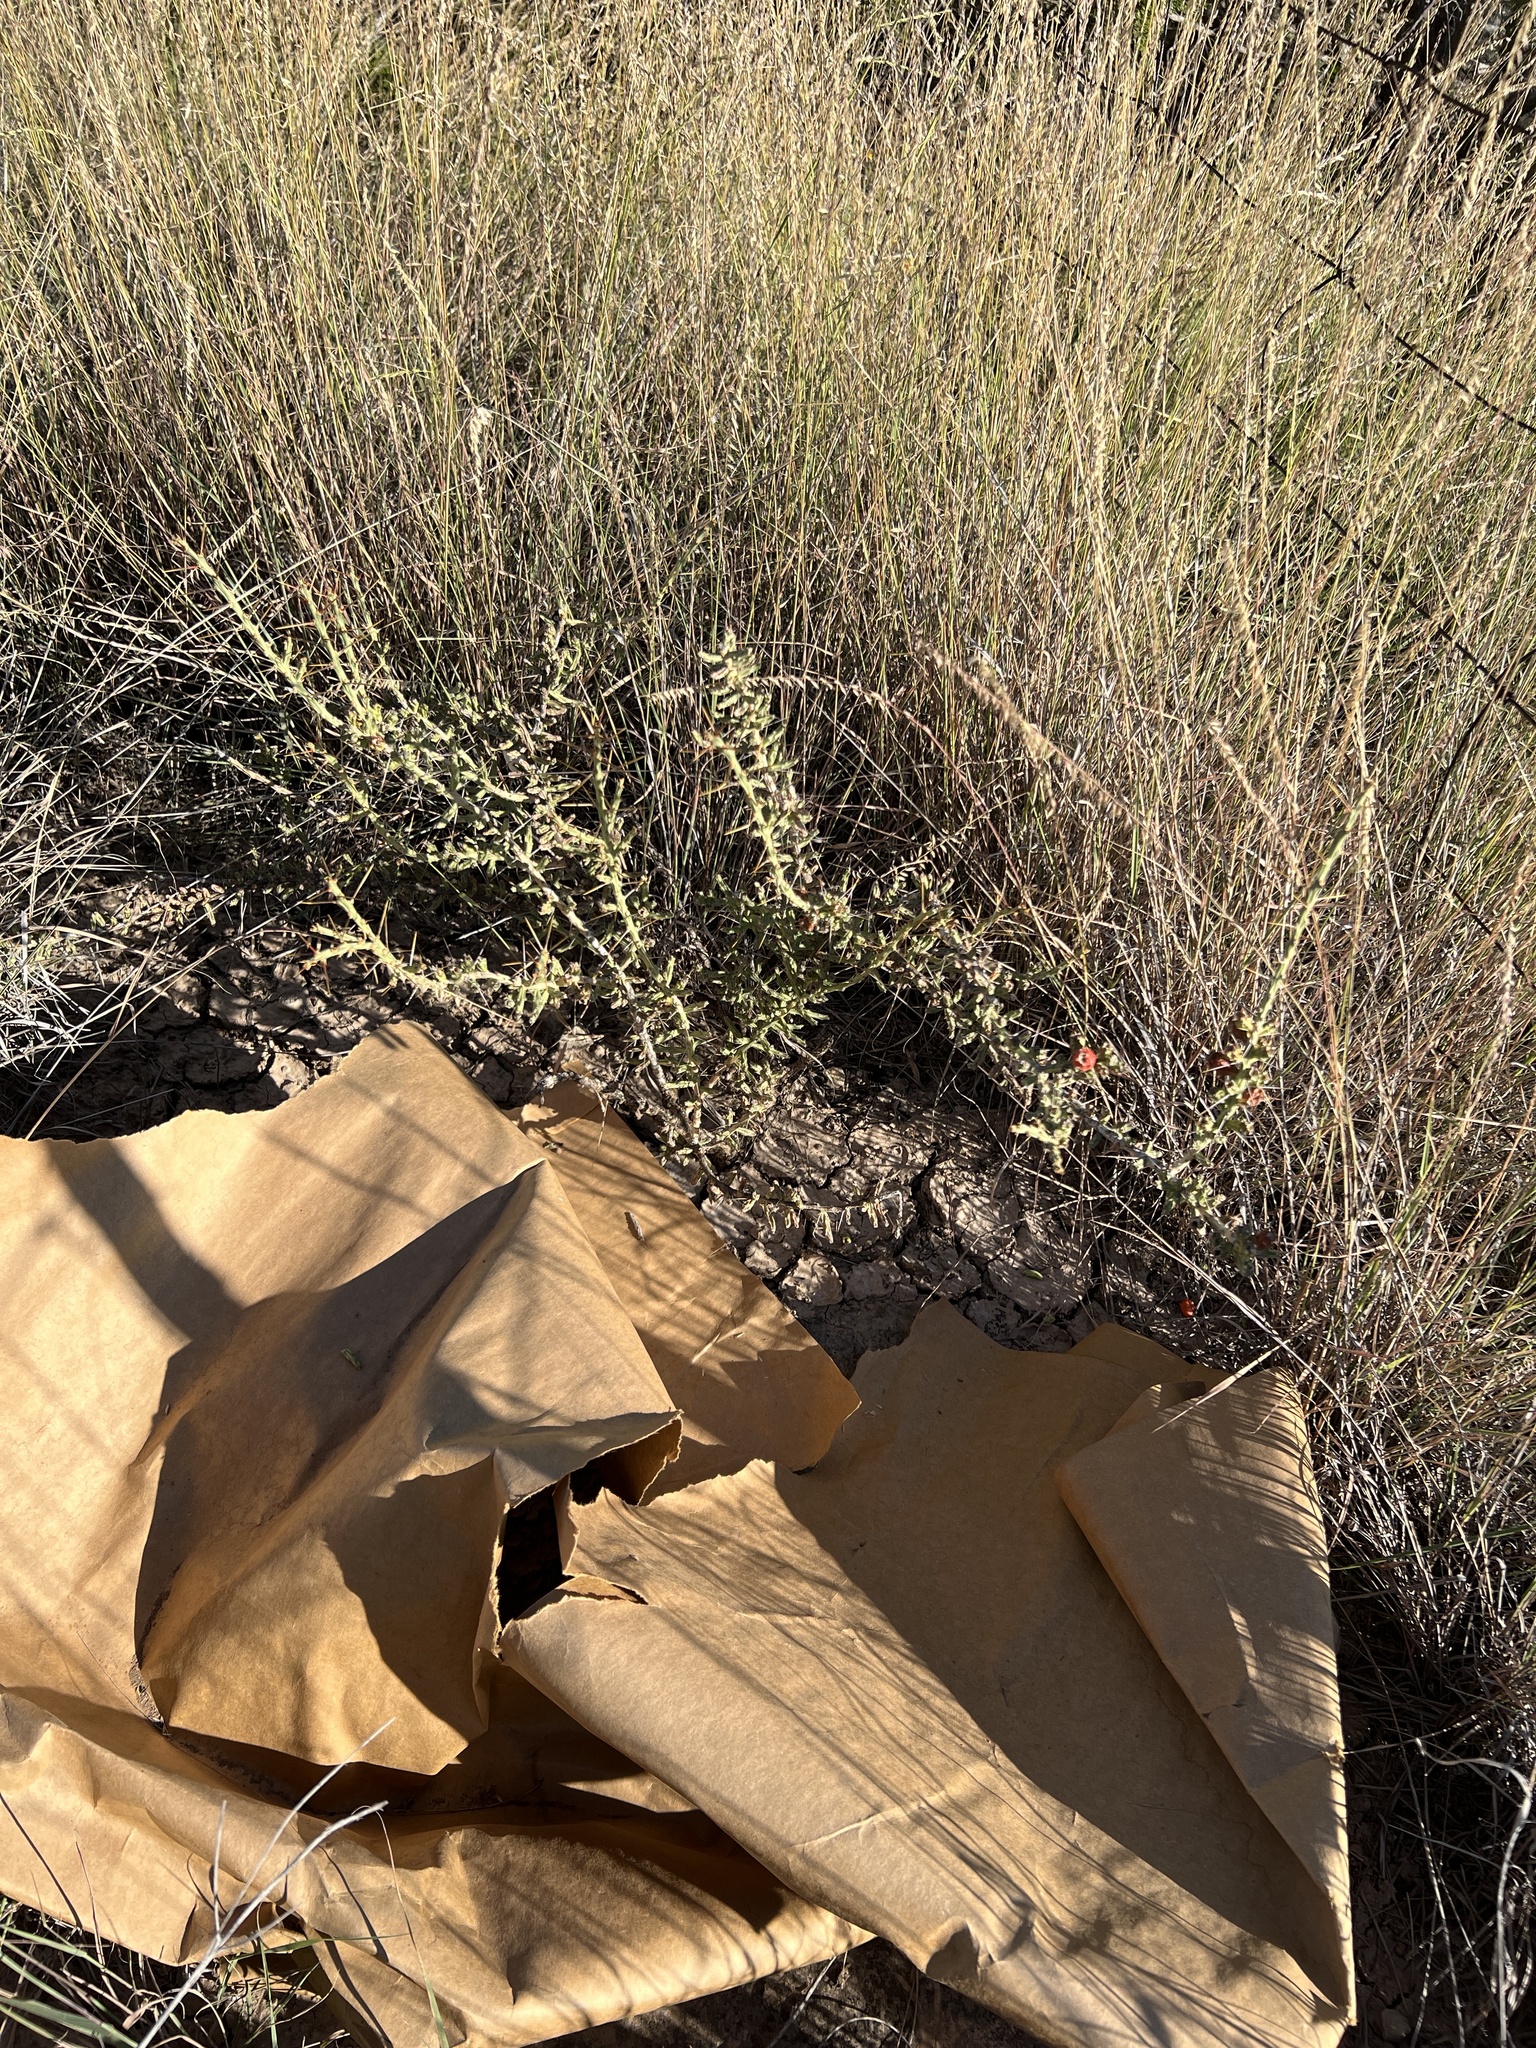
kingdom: Plantae
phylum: Tracheophyta
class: Magnoliopsida
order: Caryophyllales
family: Cactaceae
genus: Cylindropuntia
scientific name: Cylindropuntia leptocaulis
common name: Christmas cactus
